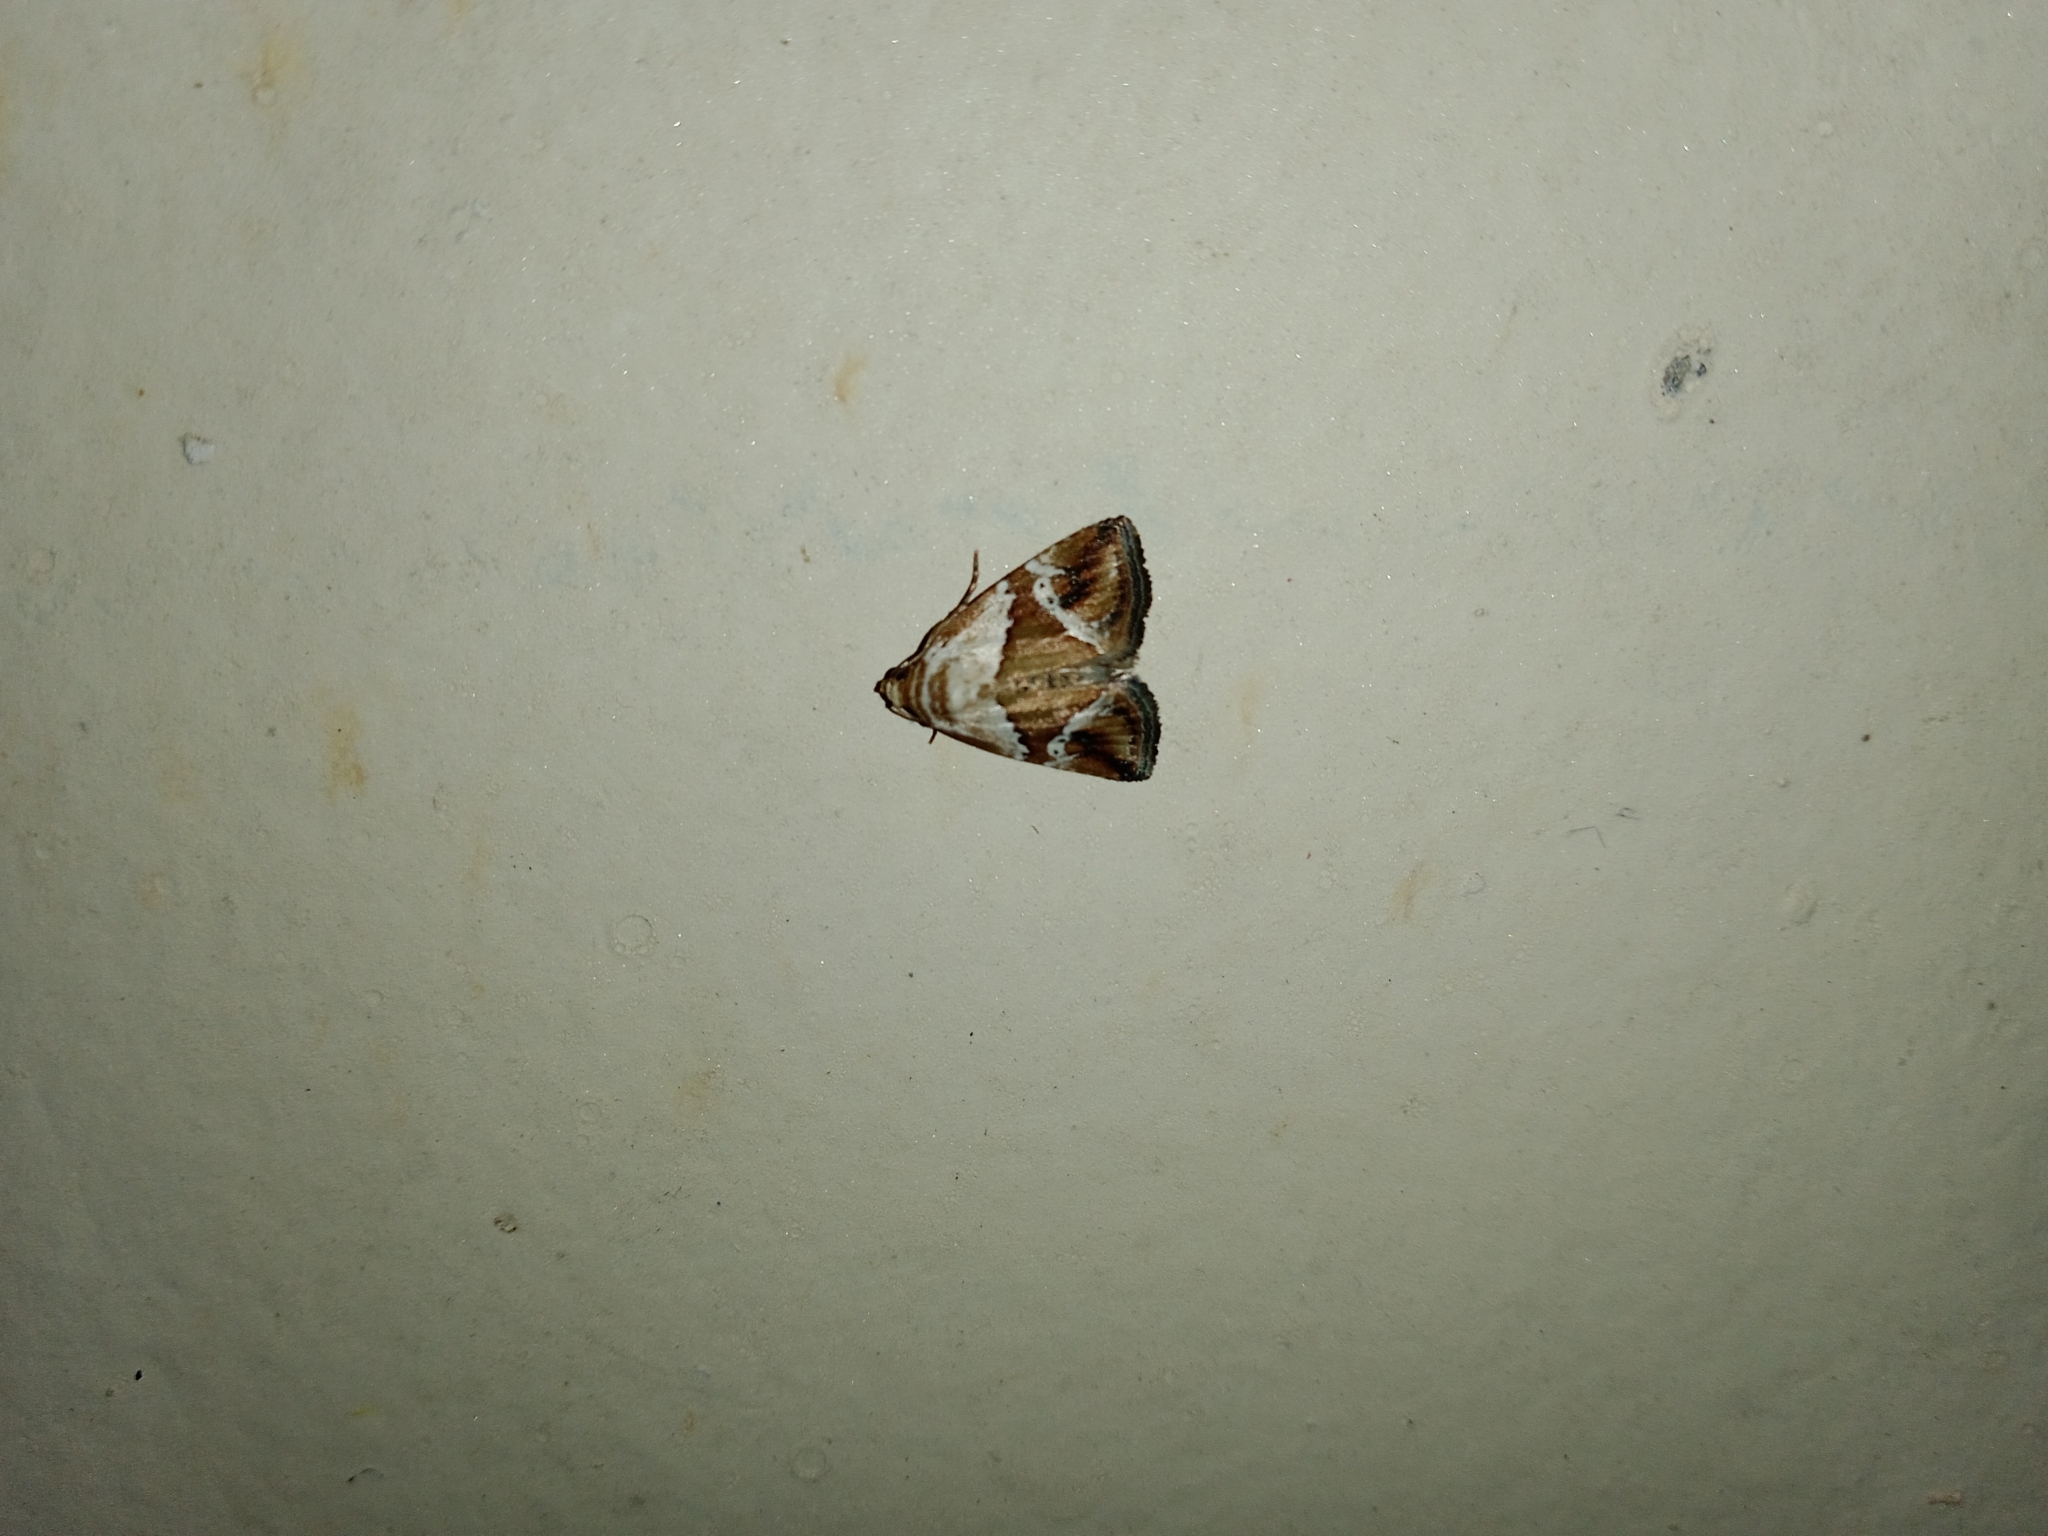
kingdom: Animalia
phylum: Arthropoda
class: Insecta
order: Lepidoptera
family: Noctuidae
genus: Maliattha
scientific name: Maliattha lativitta
